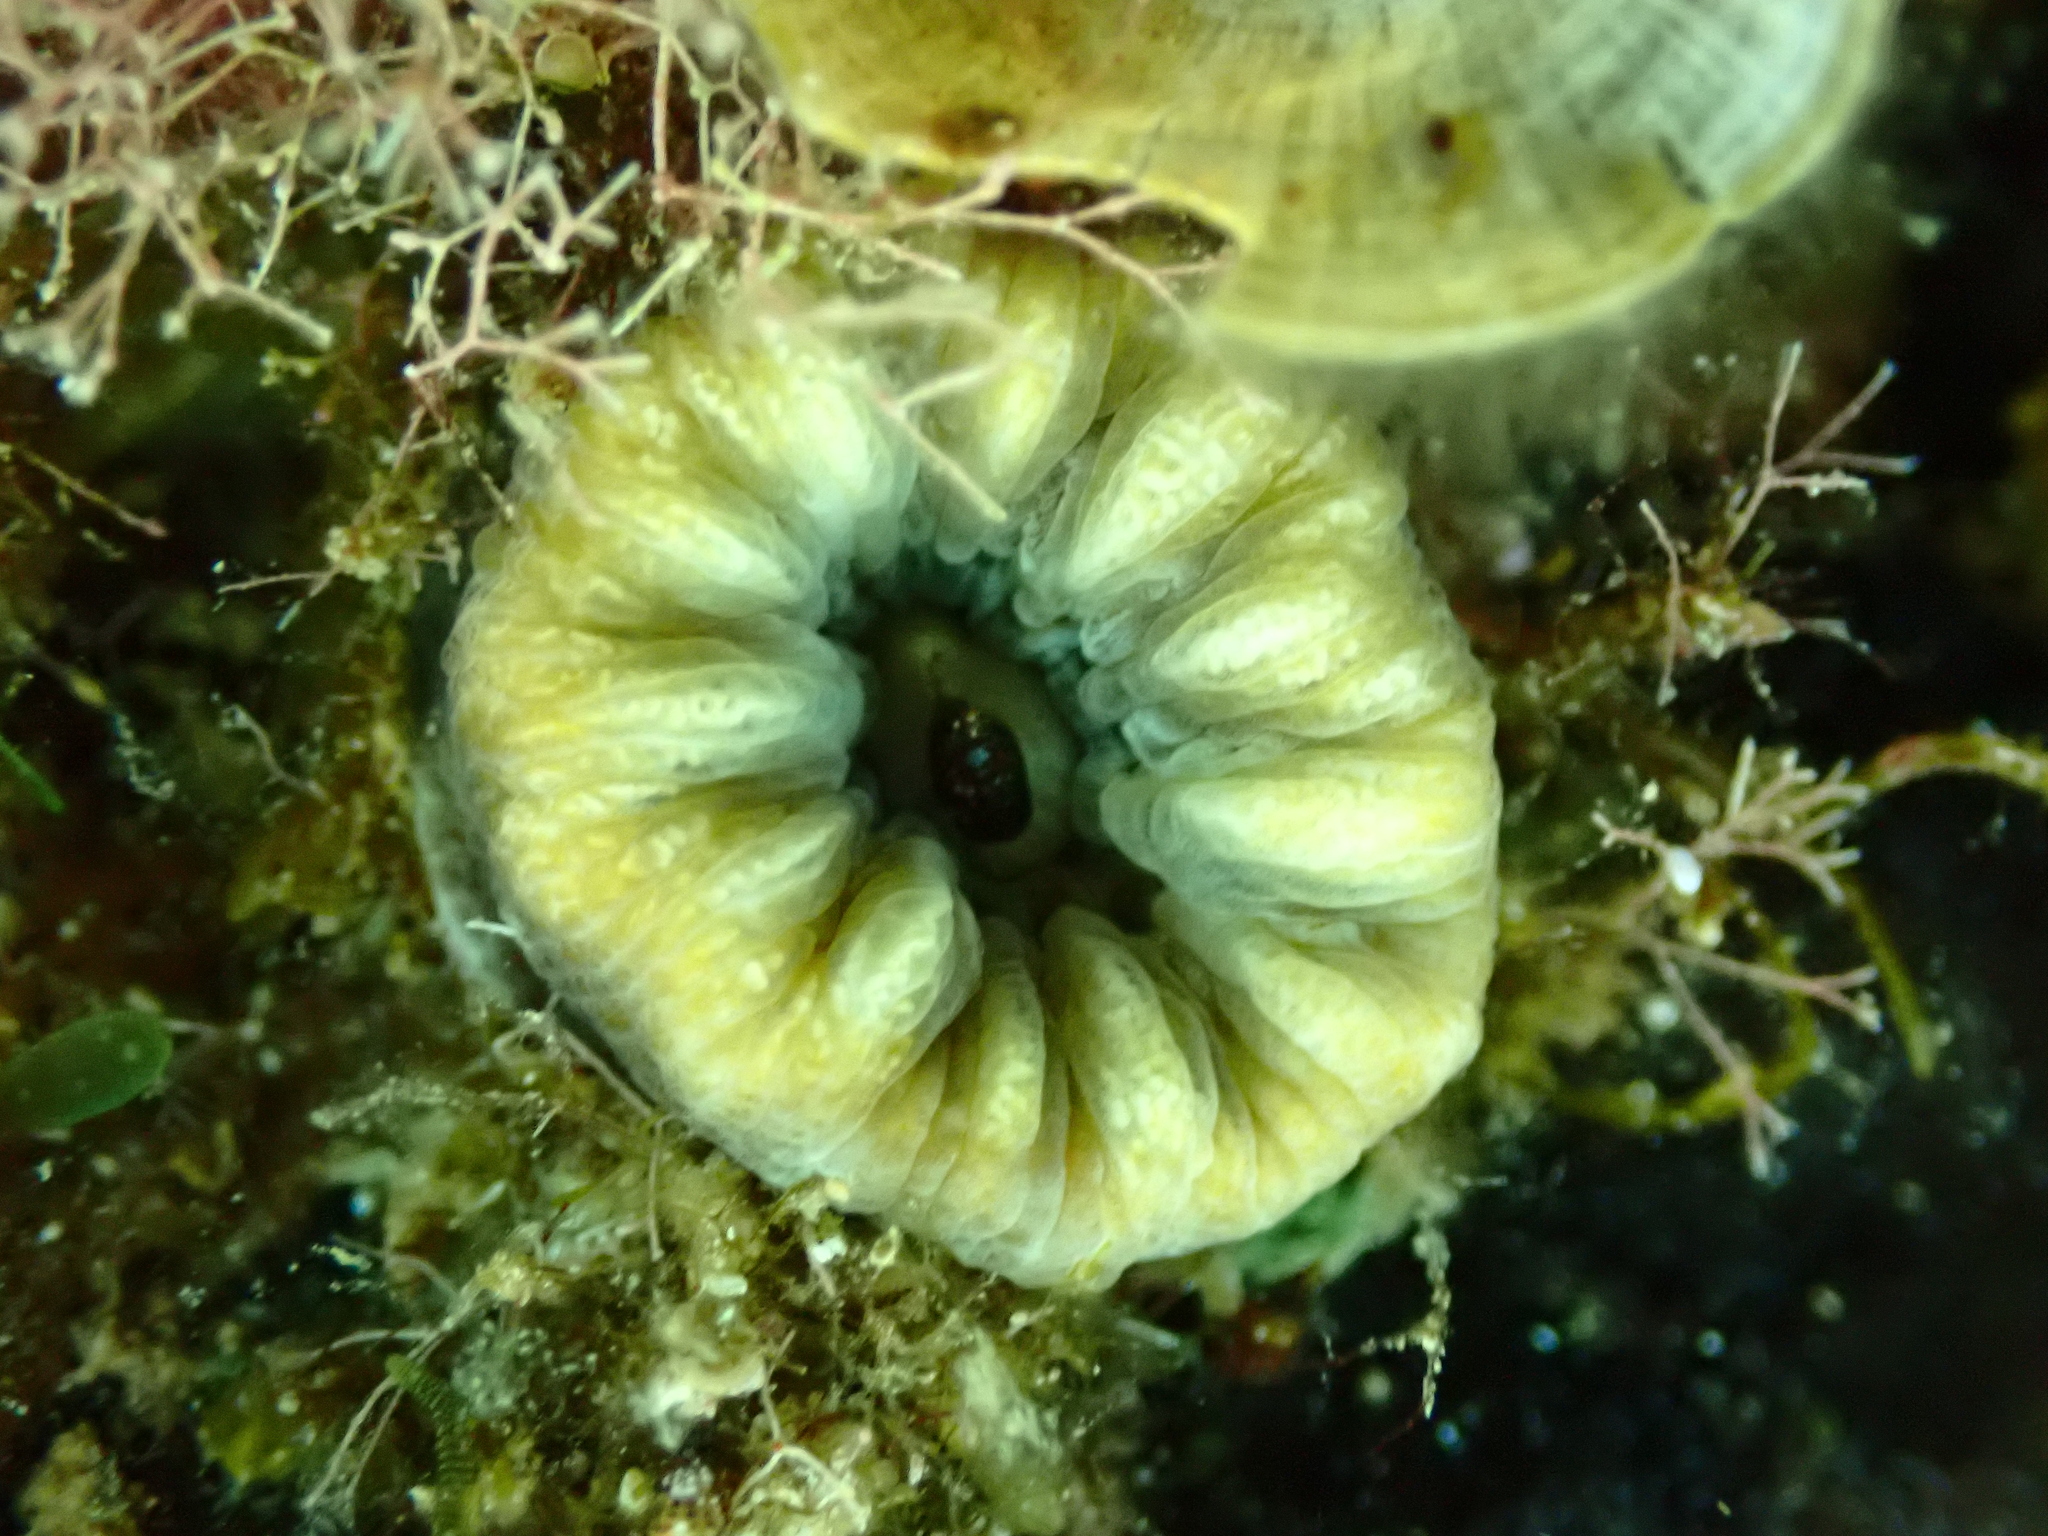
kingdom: Animalia
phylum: Cnidaria
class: Anthozoa
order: Scleractinia
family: Dendrophylliidae
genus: Balanophyllia
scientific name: Balanophyllia europaea
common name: Scarlet coral
